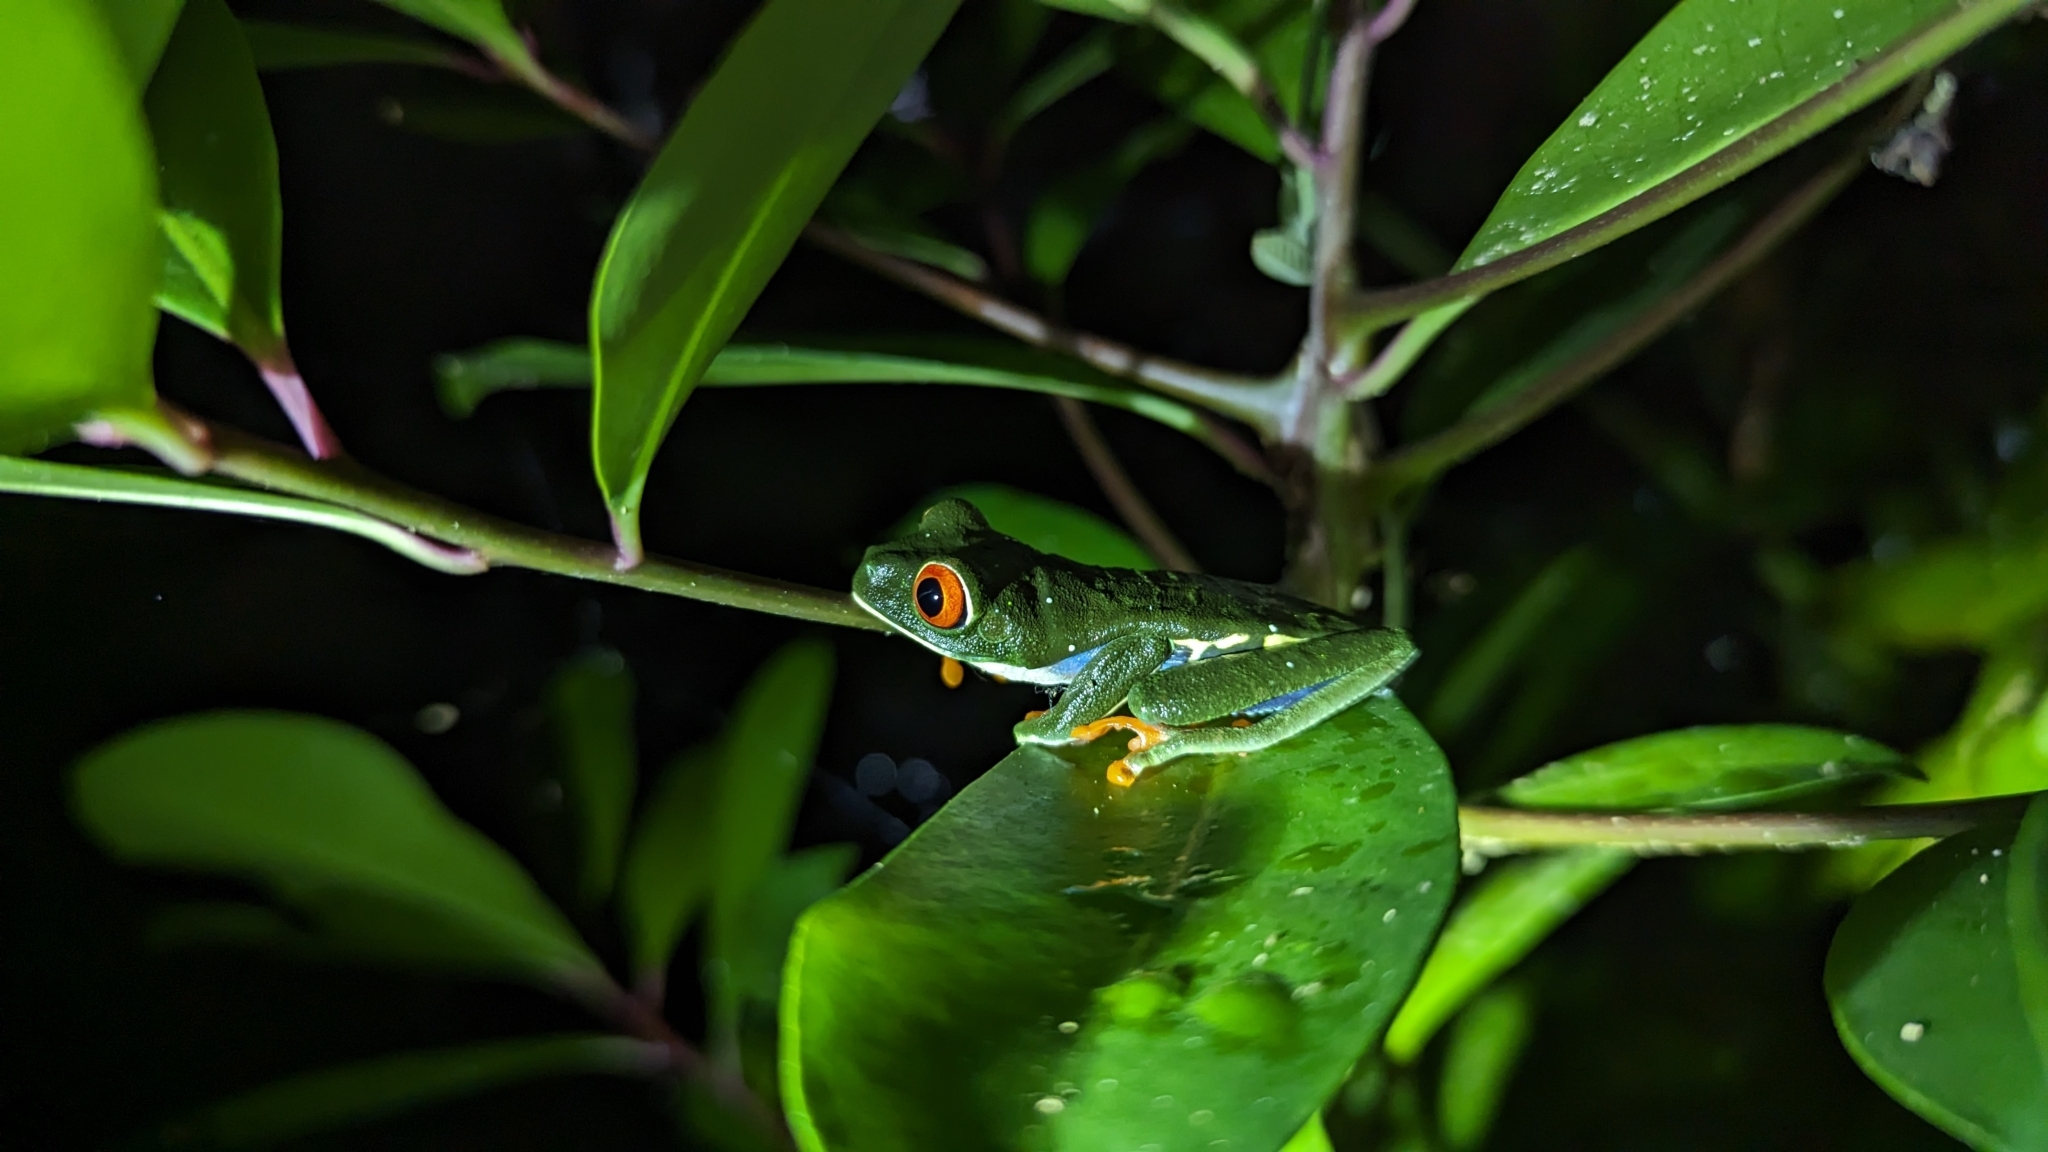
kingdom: Animalia
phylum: Chordata
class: Amphibia
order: Anura
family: Phyllomedusidae
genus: Agalychnis
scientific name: Agalychnis callidryas
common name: Red-eyed treefrog
